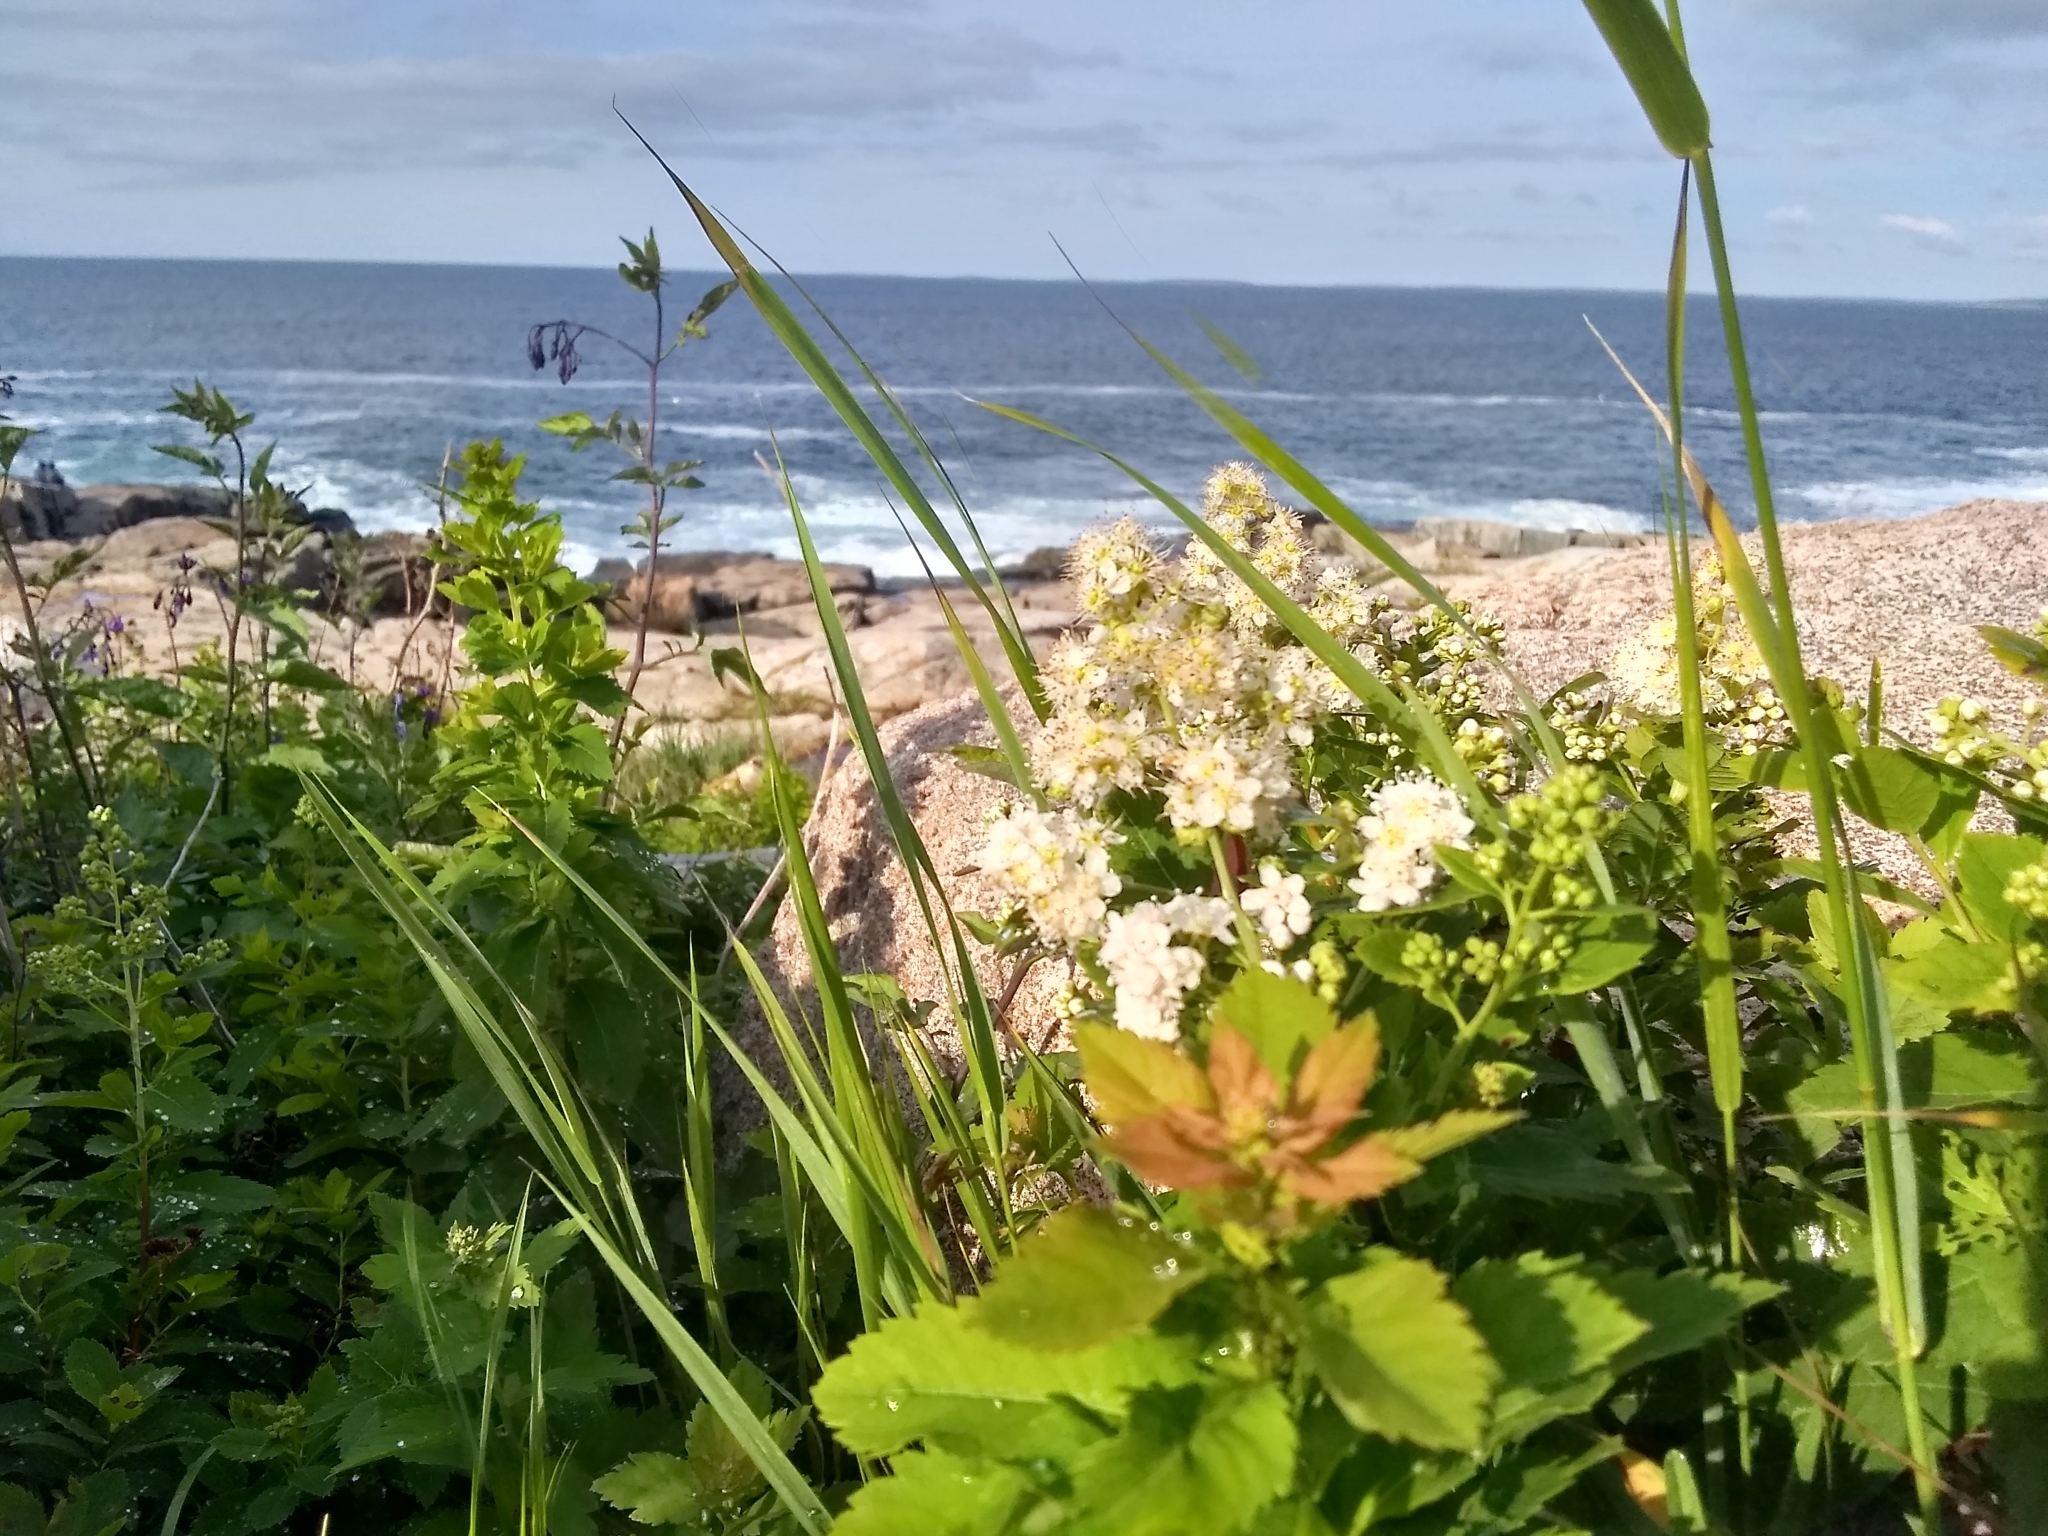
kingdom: Plantae
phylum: Tracheophyta
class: Magnoliopsida
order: Rosales
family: Rosaceae
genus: Spiraea
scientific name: Spiraea alba
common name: Pale bridewort
